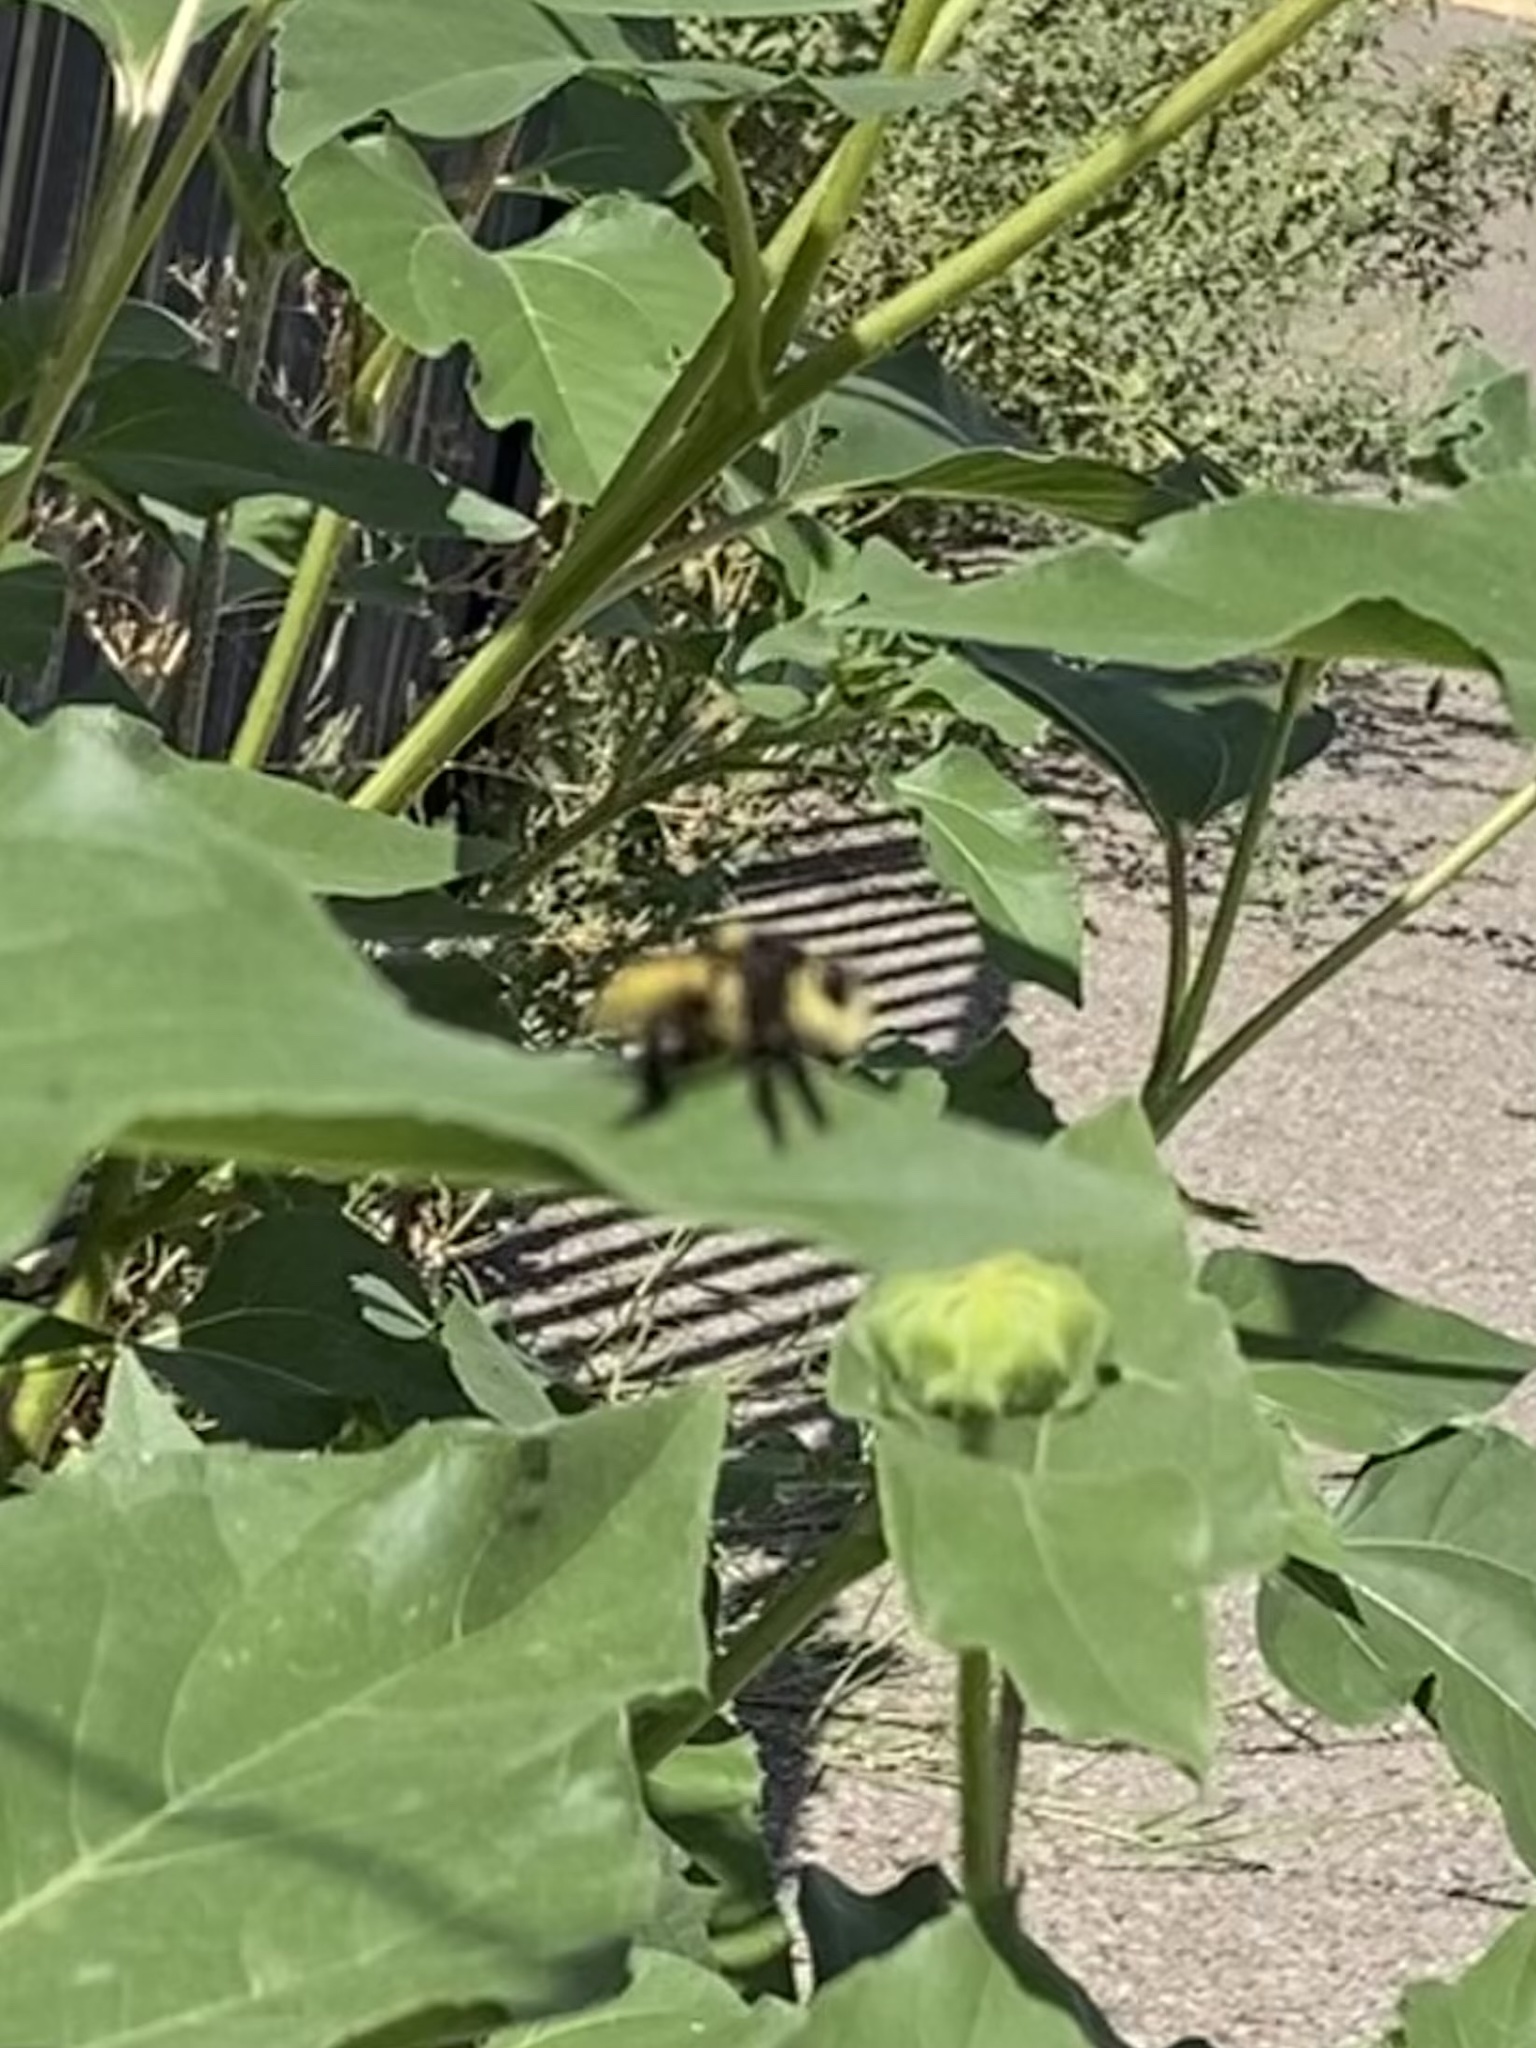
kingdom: Animalia
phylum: Arthropoda
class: Insecta
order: Diptera
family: Asilidae
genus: Mallophora
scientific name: Mallophora fautrix
